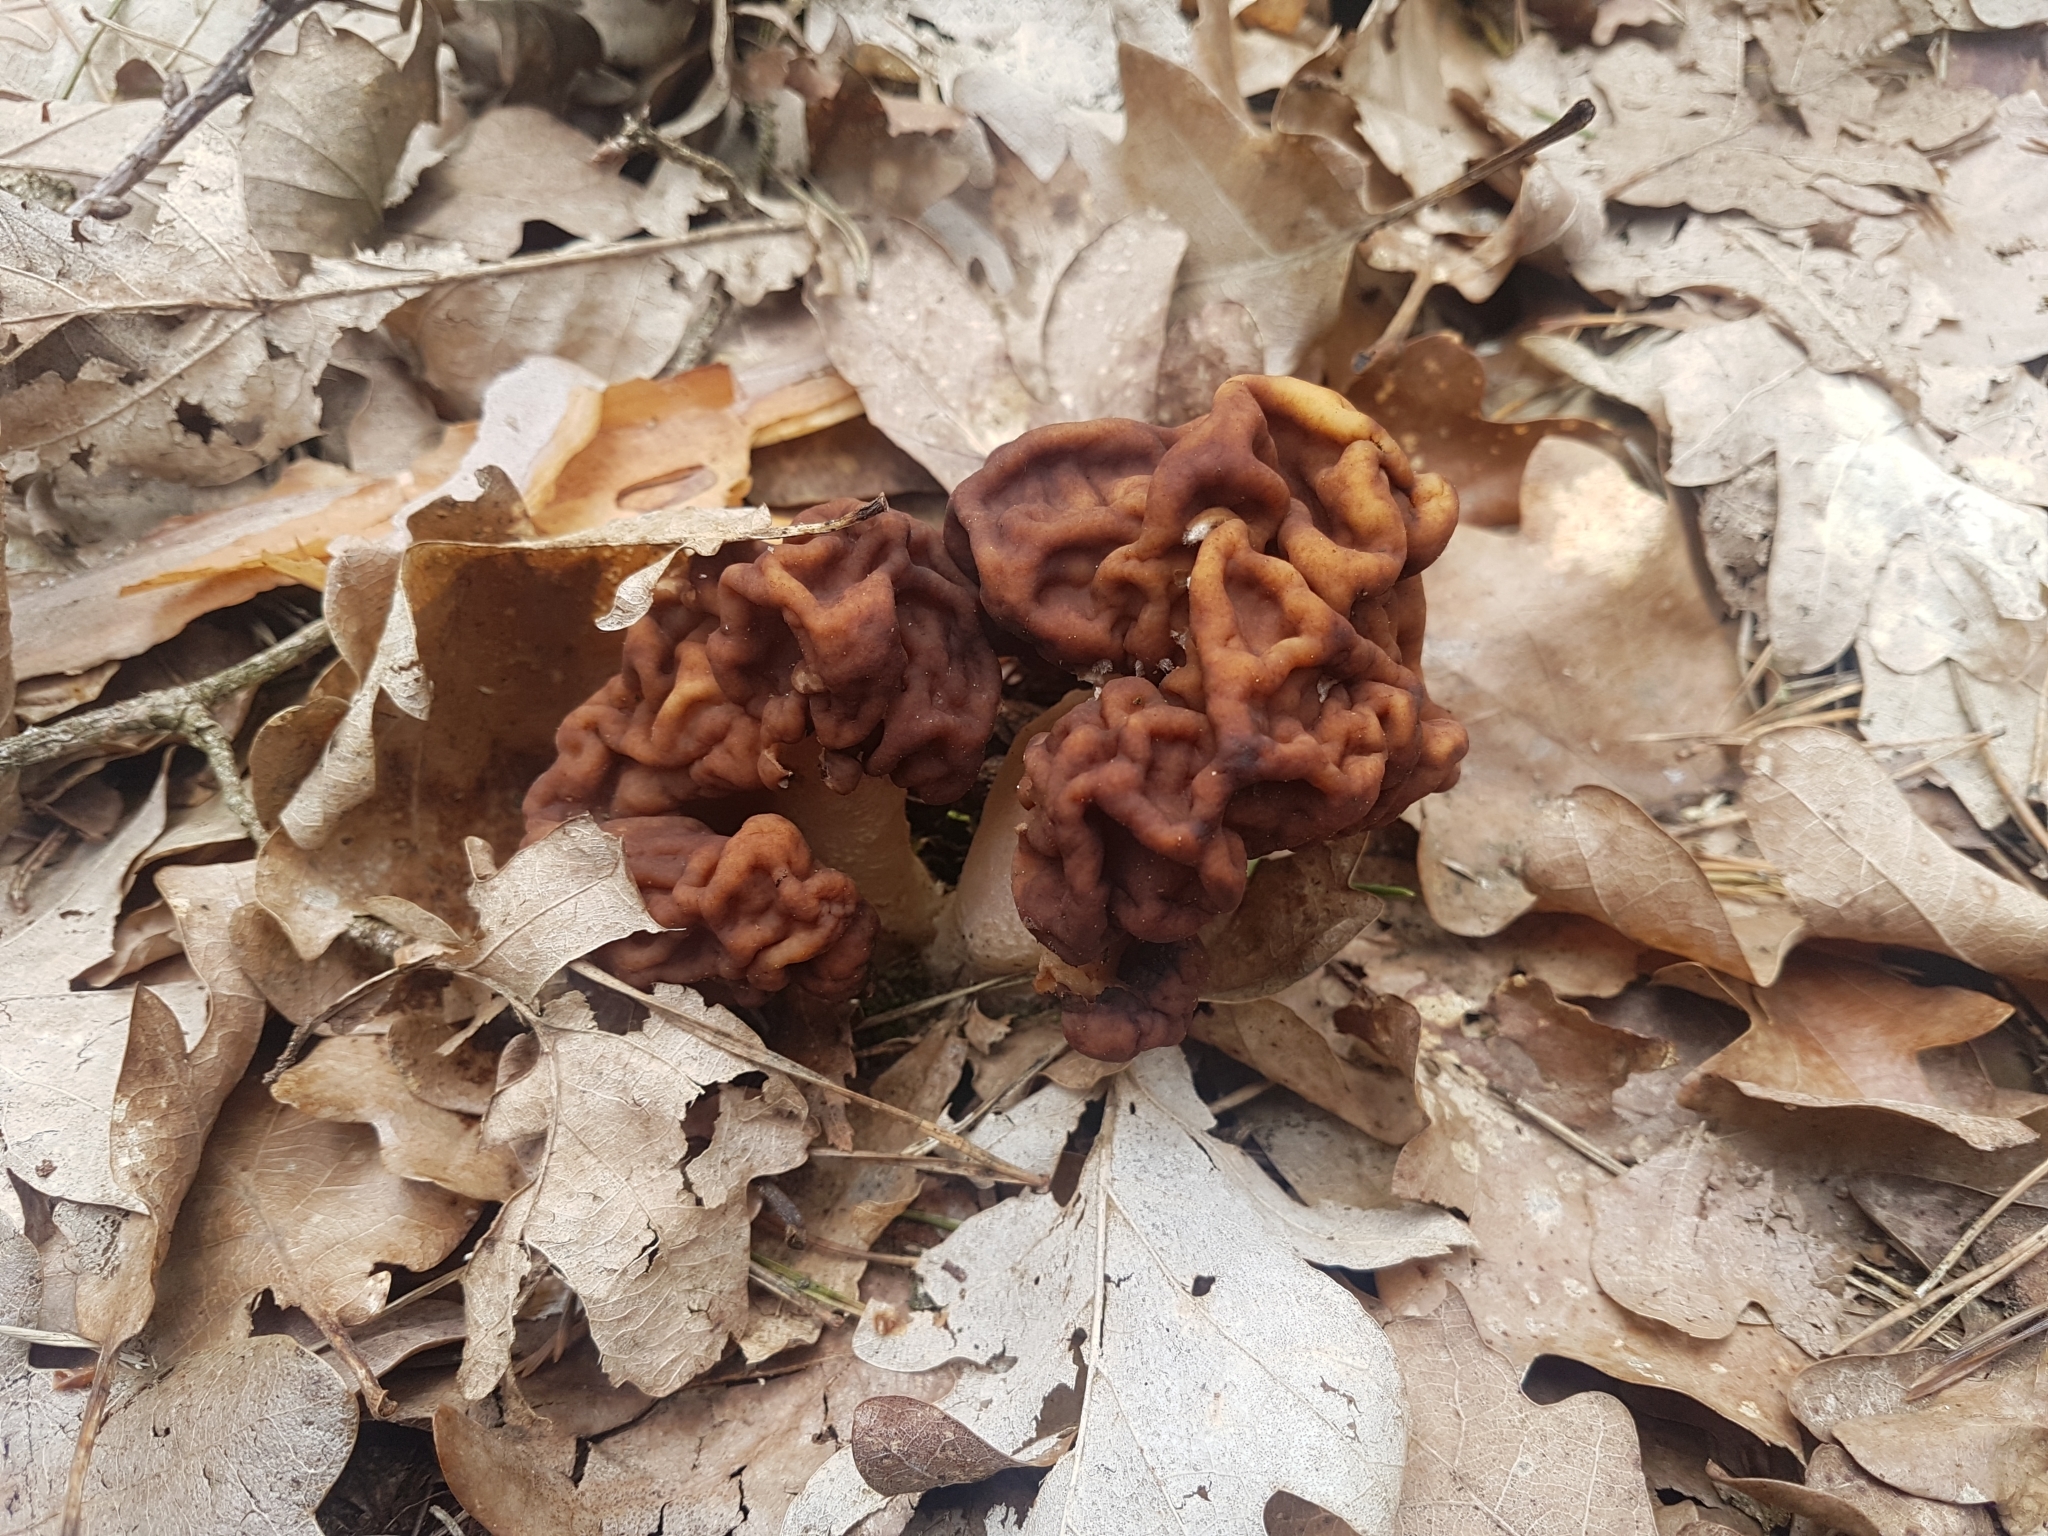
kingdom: Fungi
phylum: Ascomycota
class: Pezizomycetes
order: Pezizales
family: Discinaceae
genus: Gyromitra
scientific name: Gyromitra esculenta
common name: False morel
